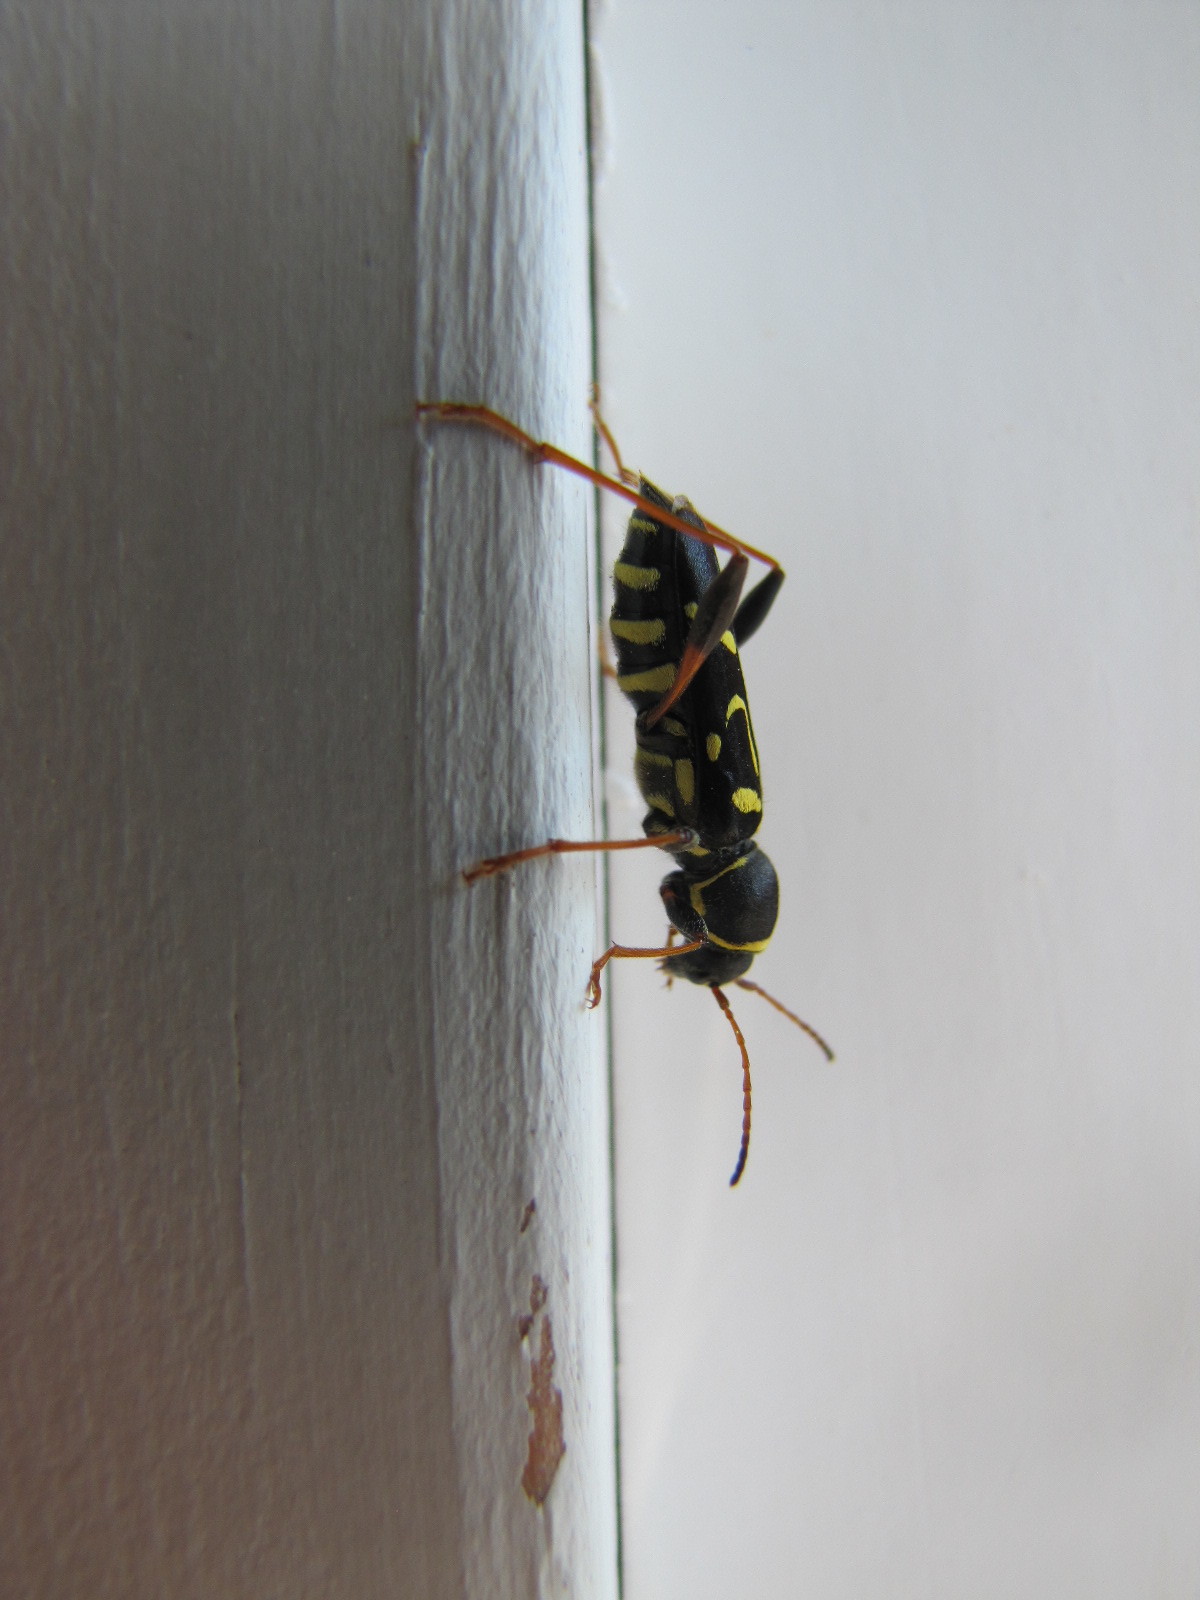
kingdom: Animalia
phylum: Arthropoda
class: Insecta
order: Coleoptera
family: Cerambycidae
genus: Clytus
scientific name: Clytus ruricola
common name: Round-necked longhorn beetle
